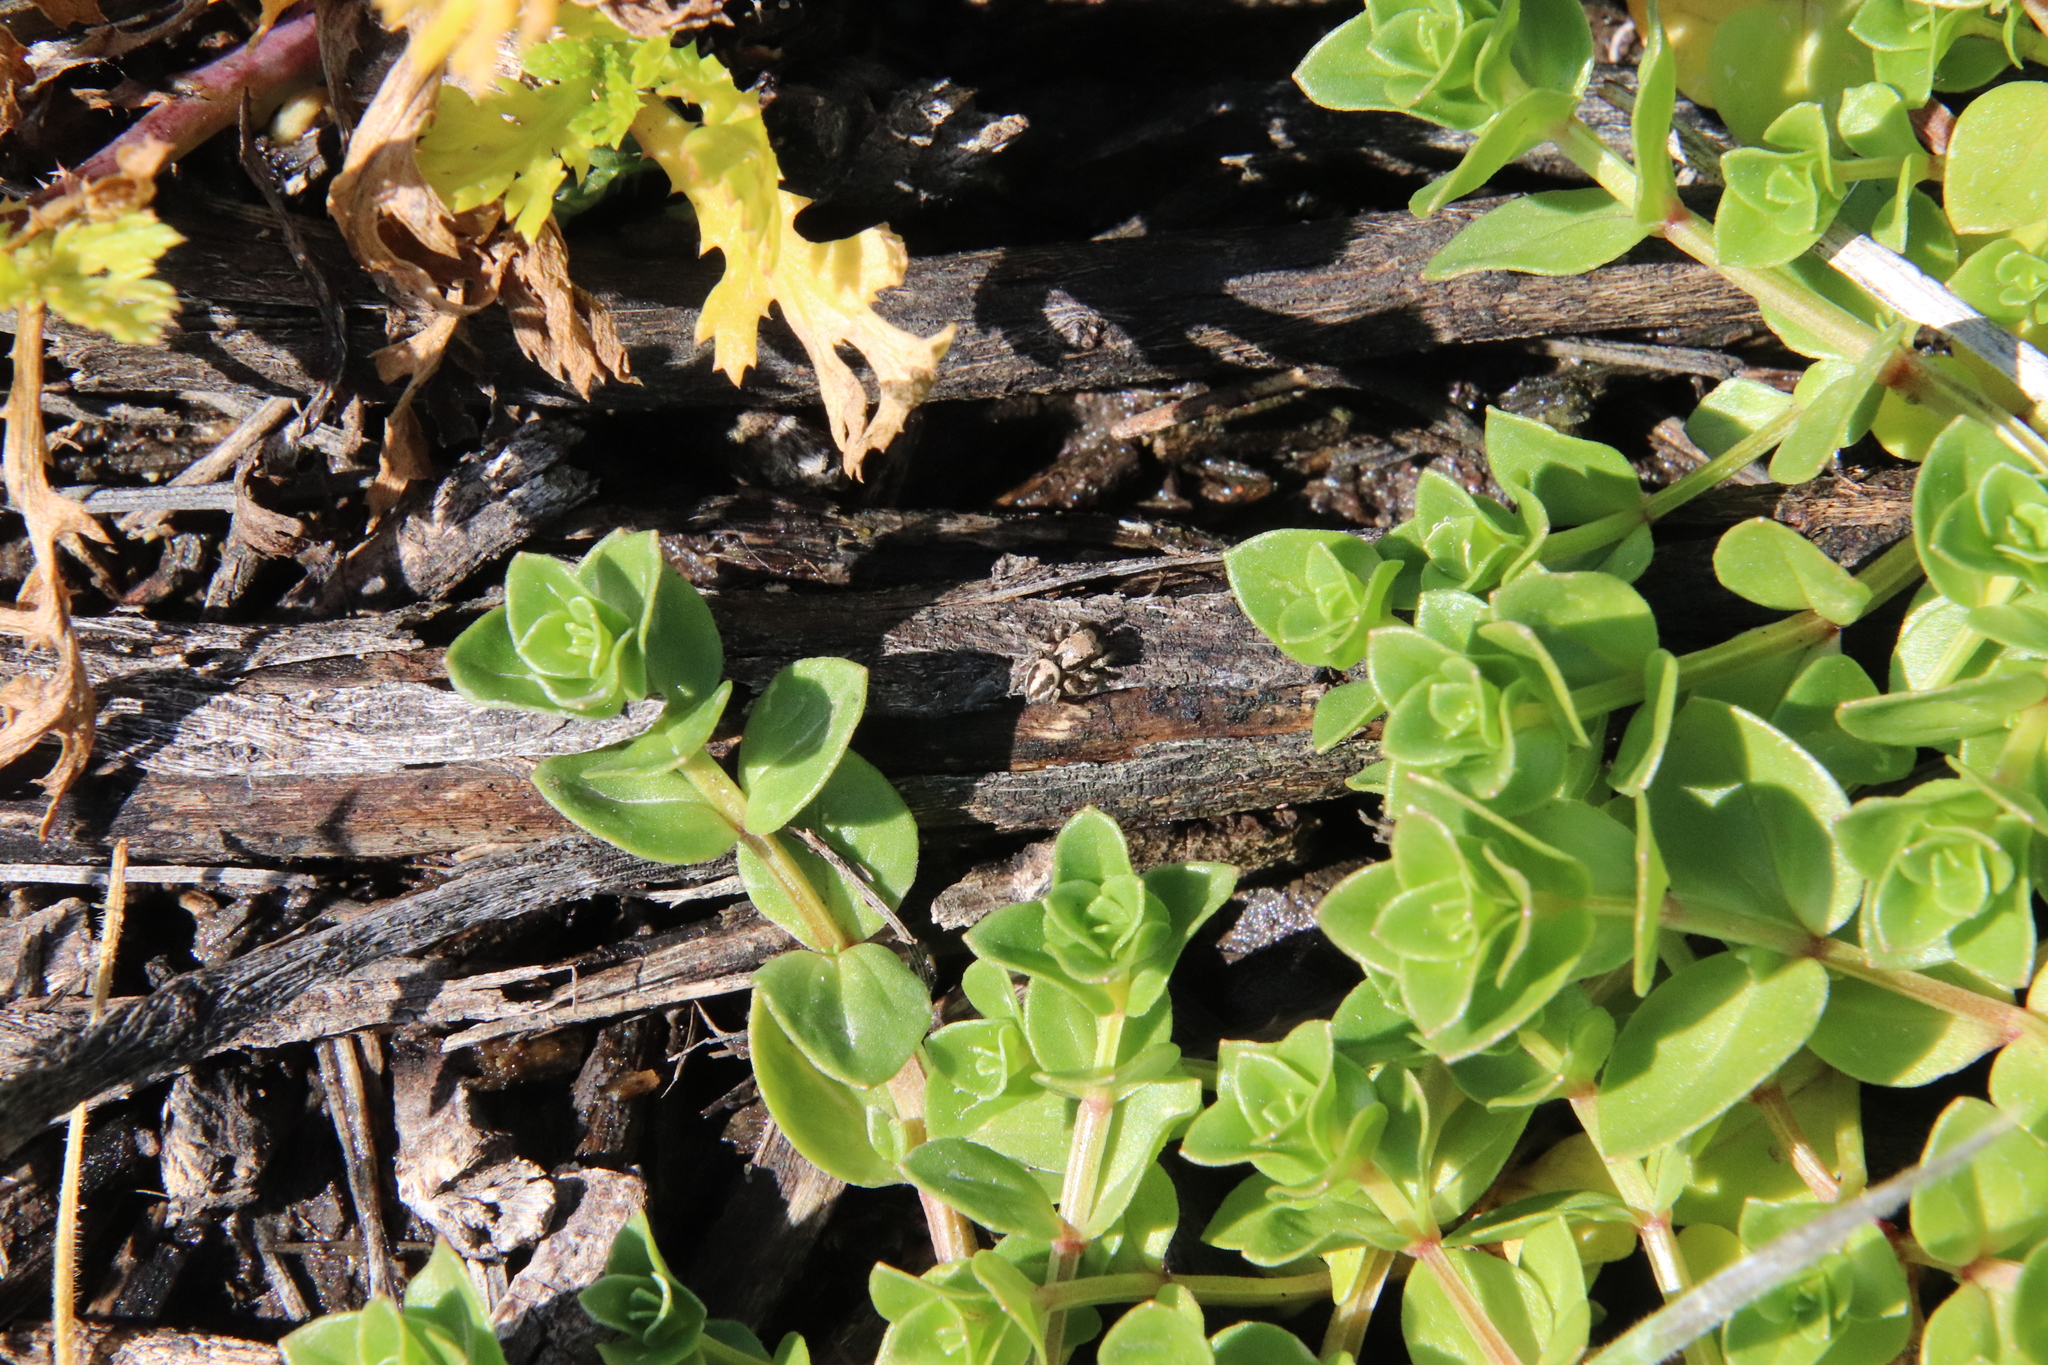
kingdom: Animalia
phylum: Arthropoda
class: Arachnida
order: Araneae
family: Salticidae
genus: Habronattus
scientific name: Habronattus californicus
